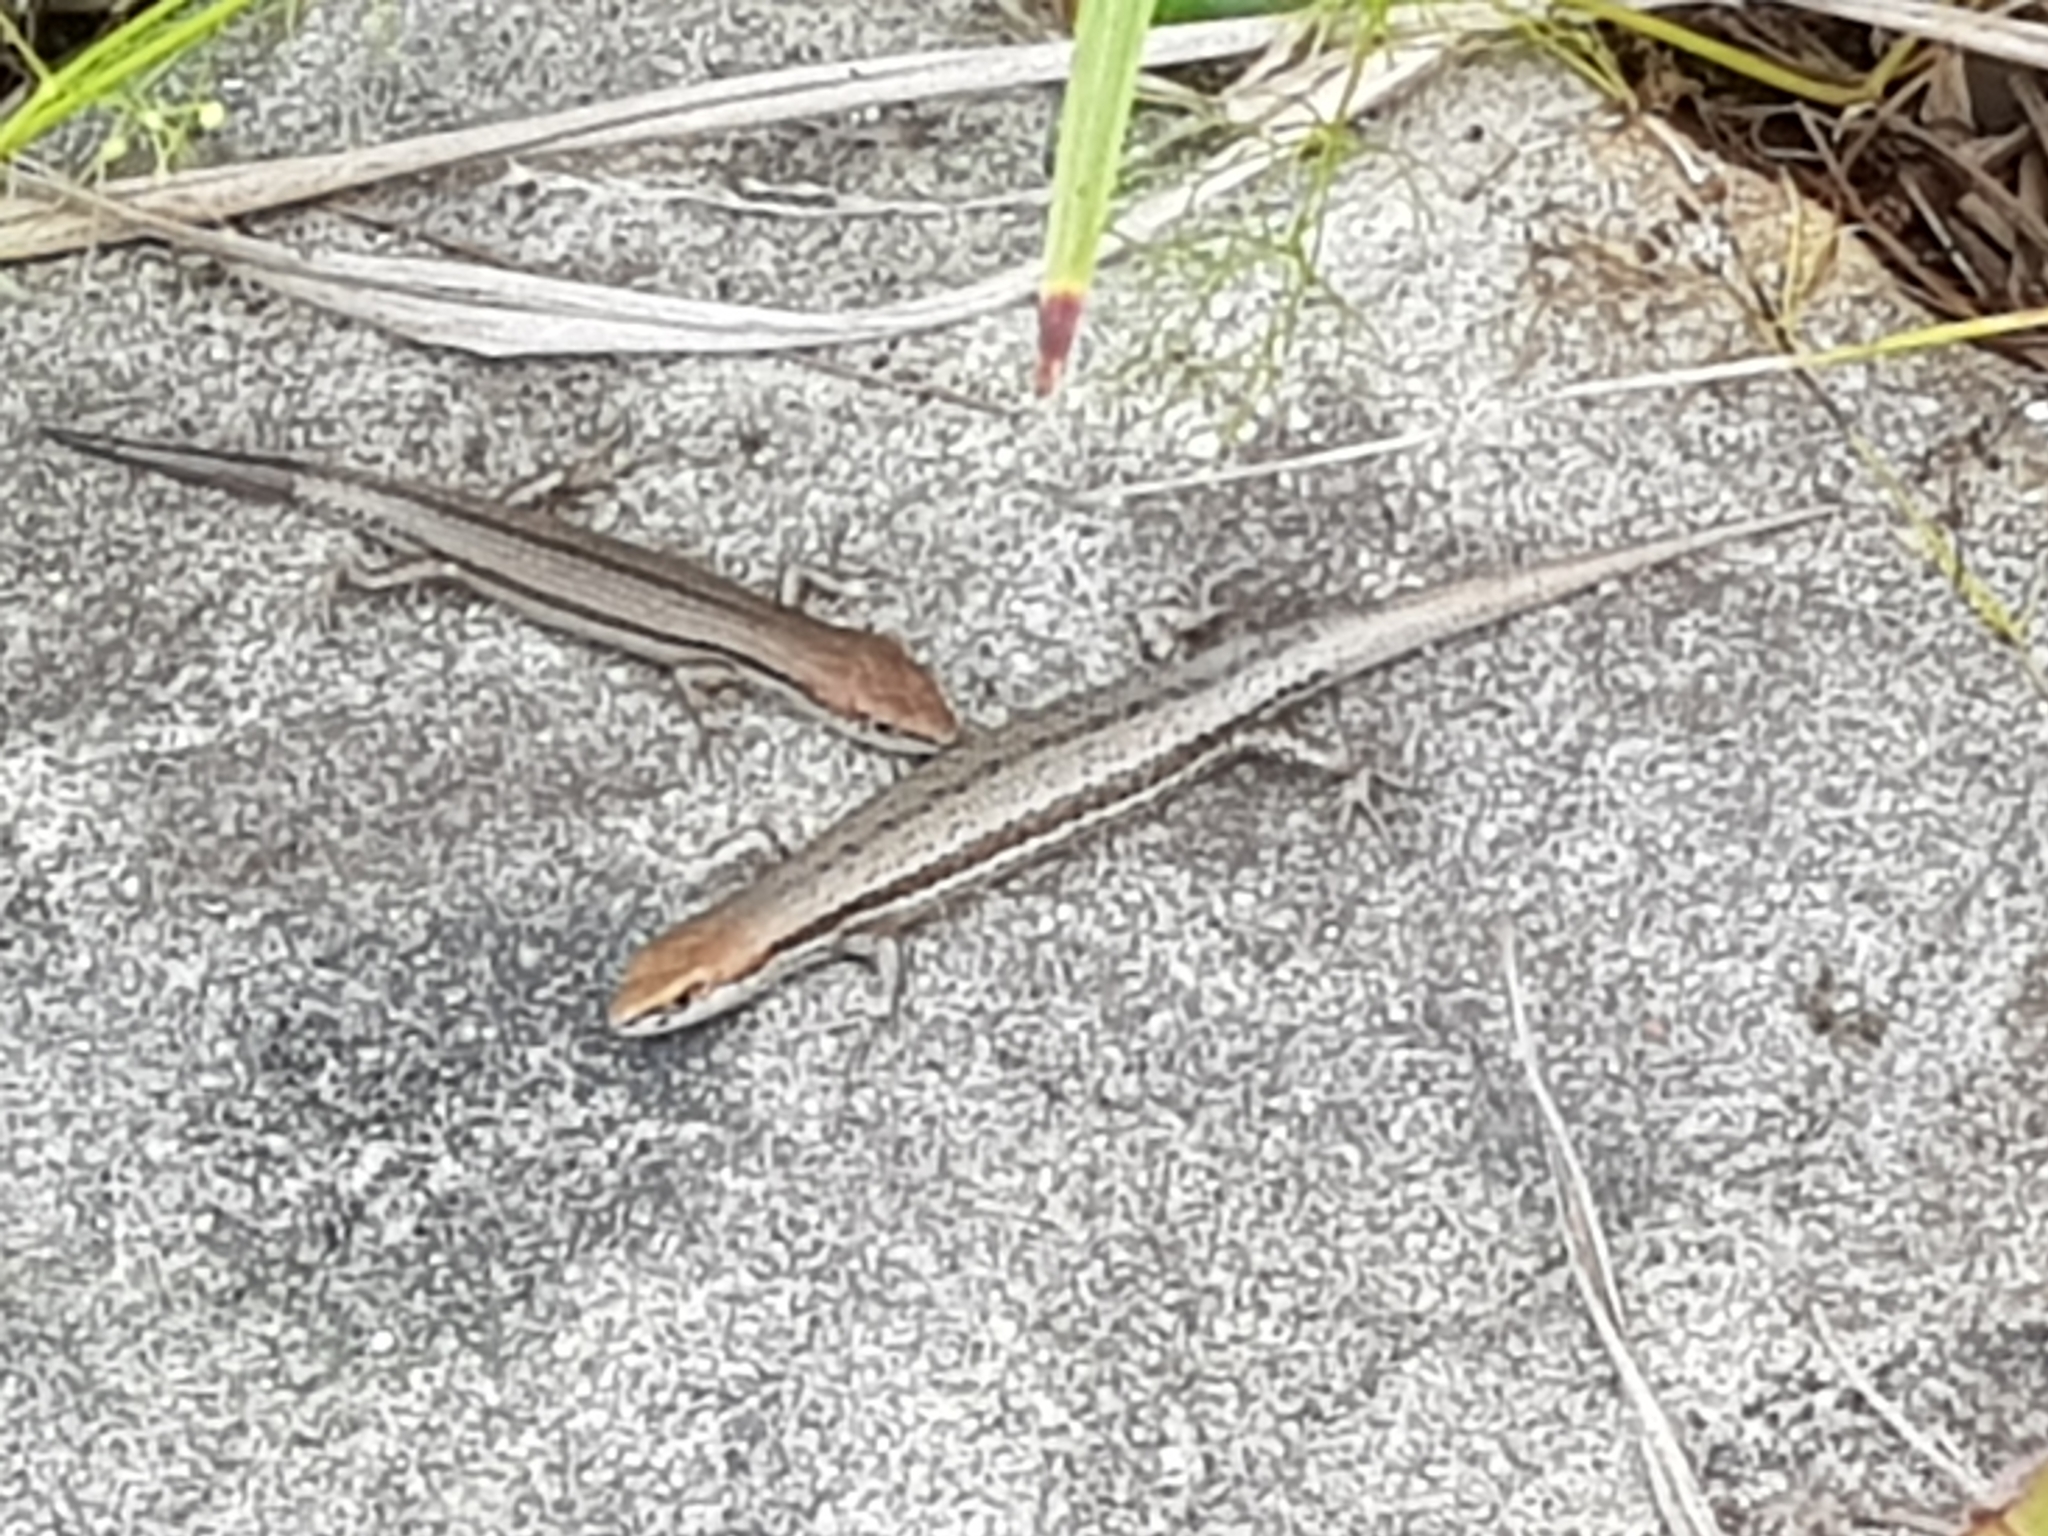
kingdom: Animalia
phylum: Chordata
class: Squamata
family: Scincidae
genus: Lampropholis
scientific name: Lampropholis guichenoti
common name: Garden skink
